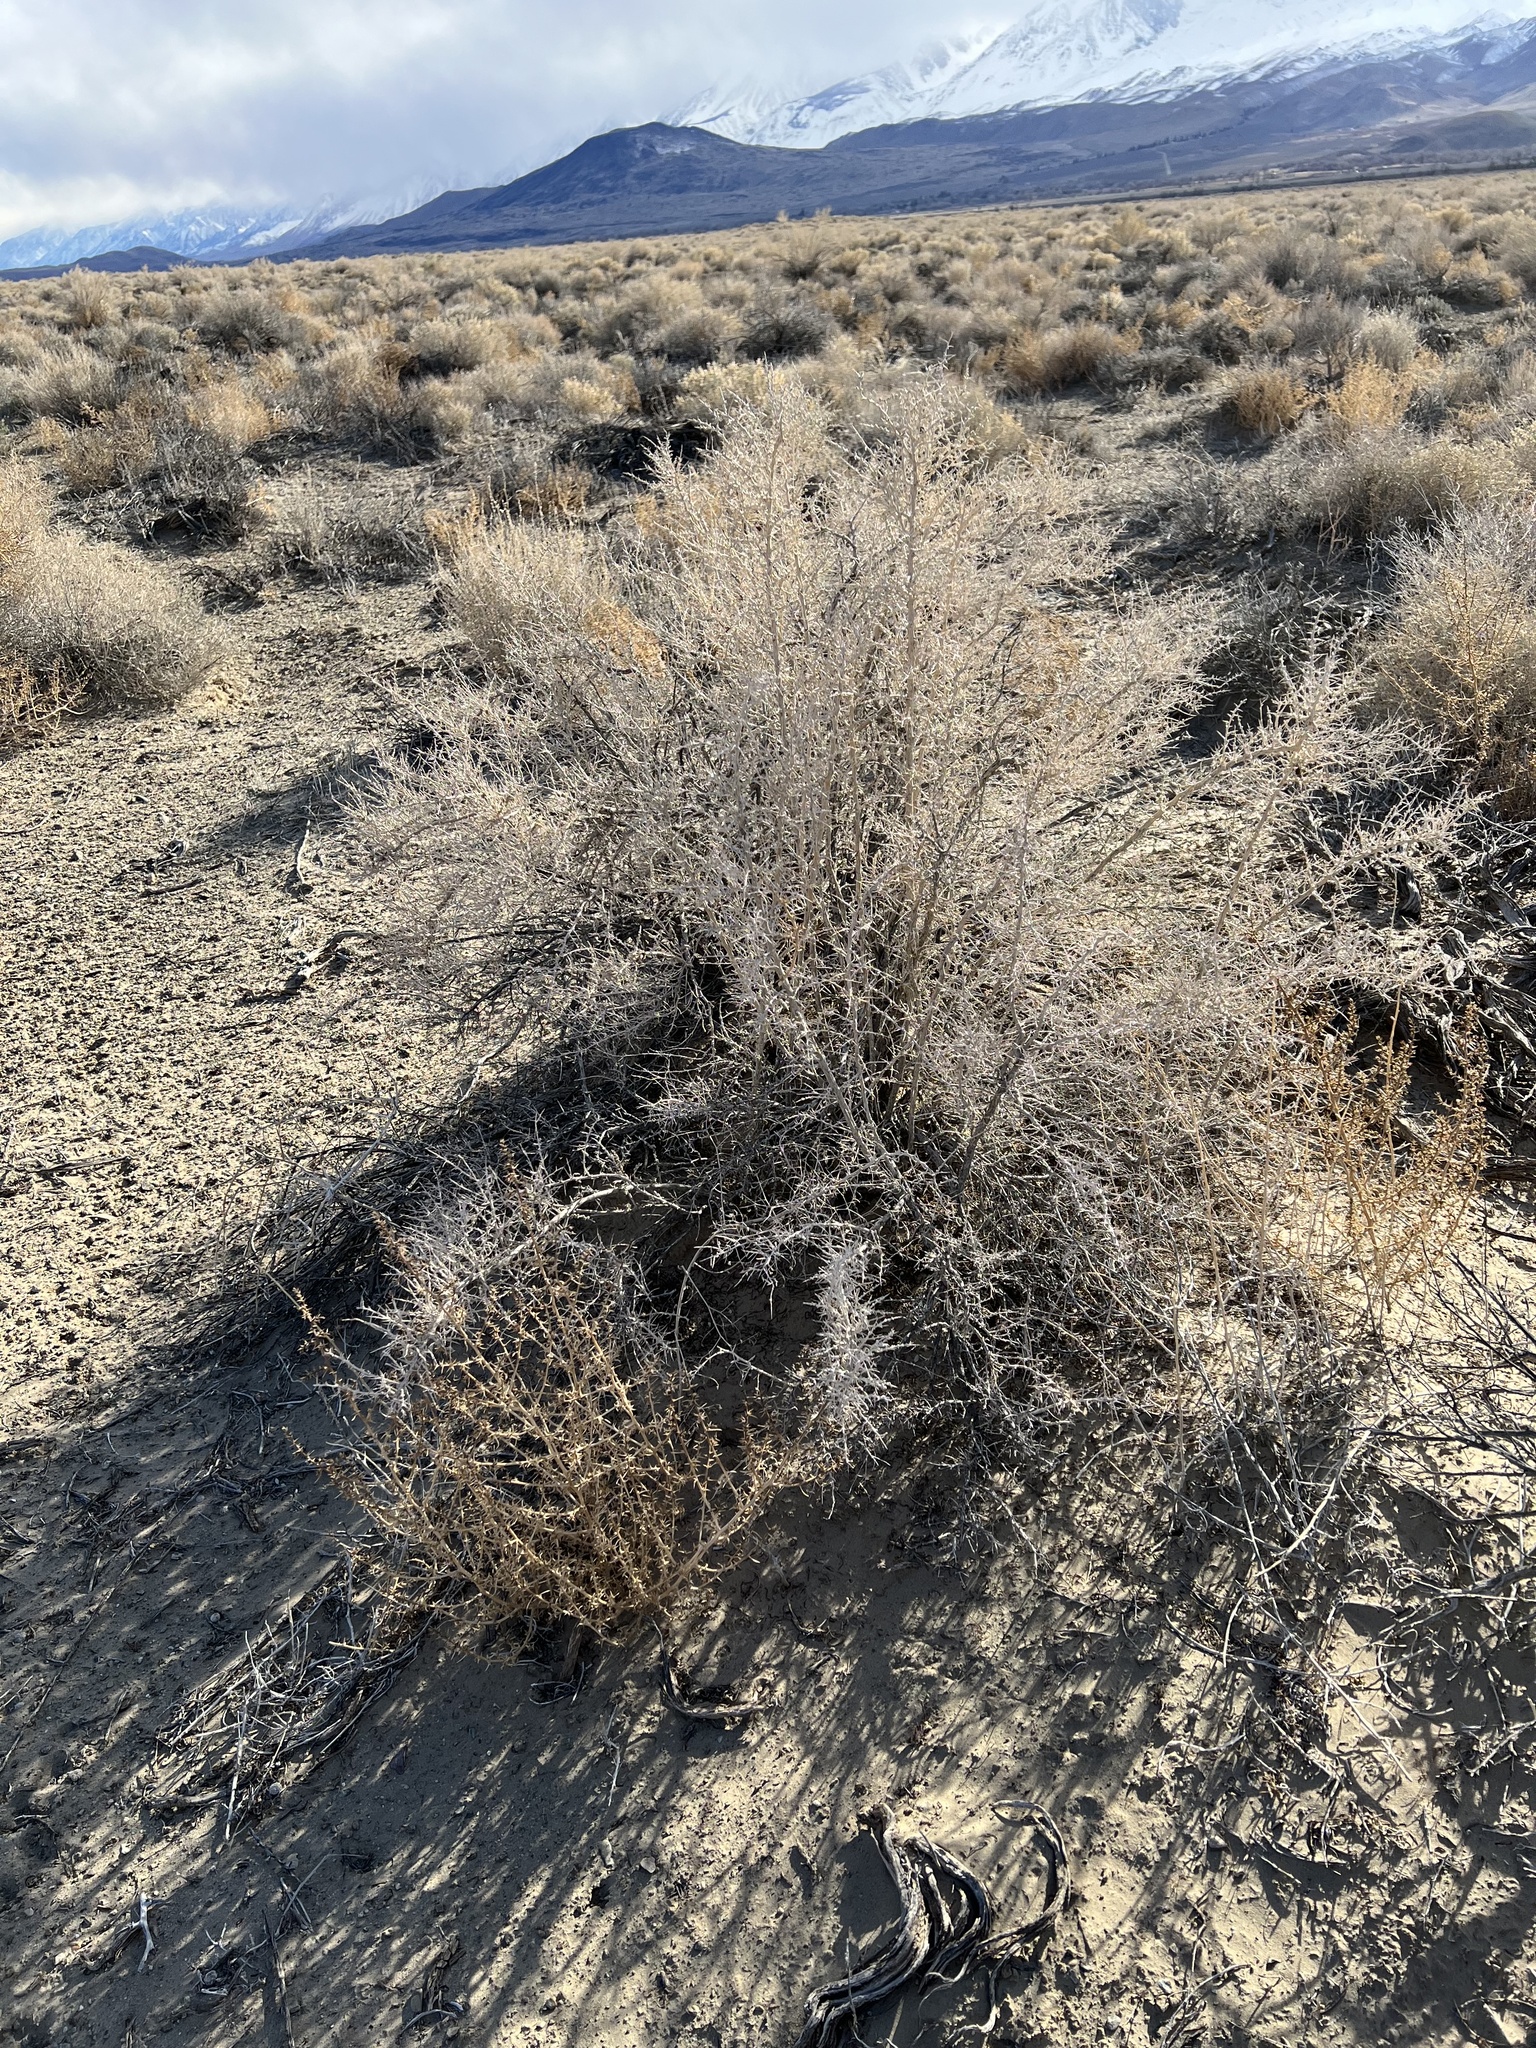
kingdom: Plantae
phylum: Tracheophyta
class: Magnoliopsida
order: Caryophyllales
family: Sarcobataceae
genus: Sarcobatus
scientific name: Sarcobatus vermiculatus
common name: Greasewood
